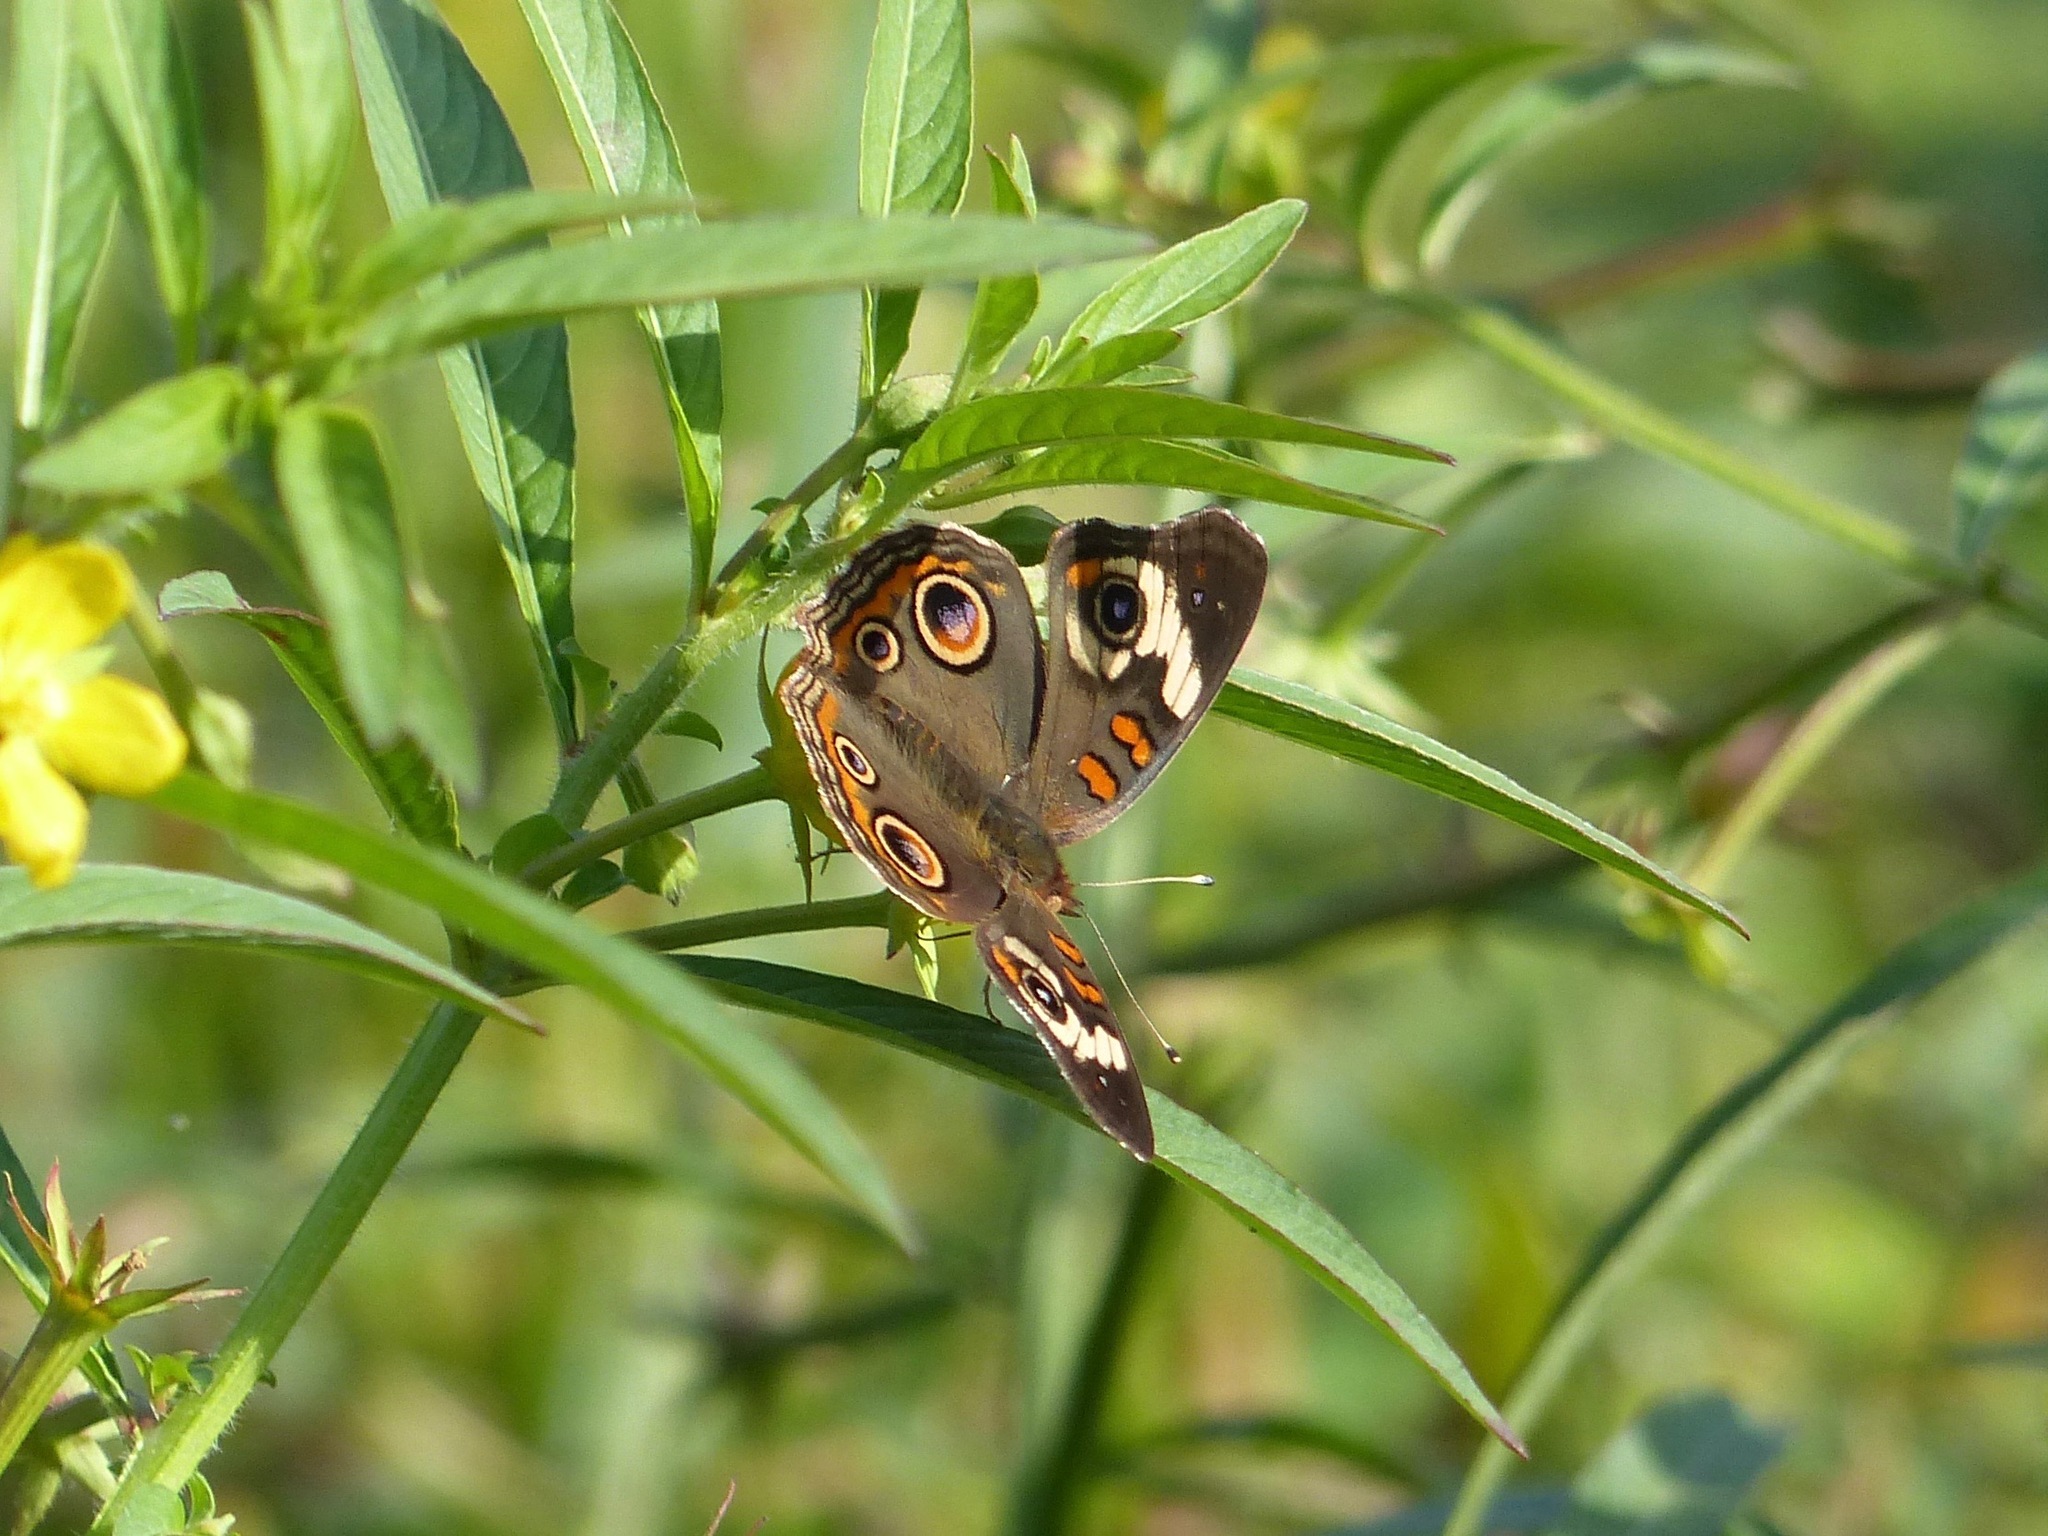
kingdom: Animalia
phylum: Arthropoda
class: Insecta
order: Lepidoptera
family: Nymphalidae
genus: Junonia
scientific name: Junonia coenia
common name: Common buckeye
